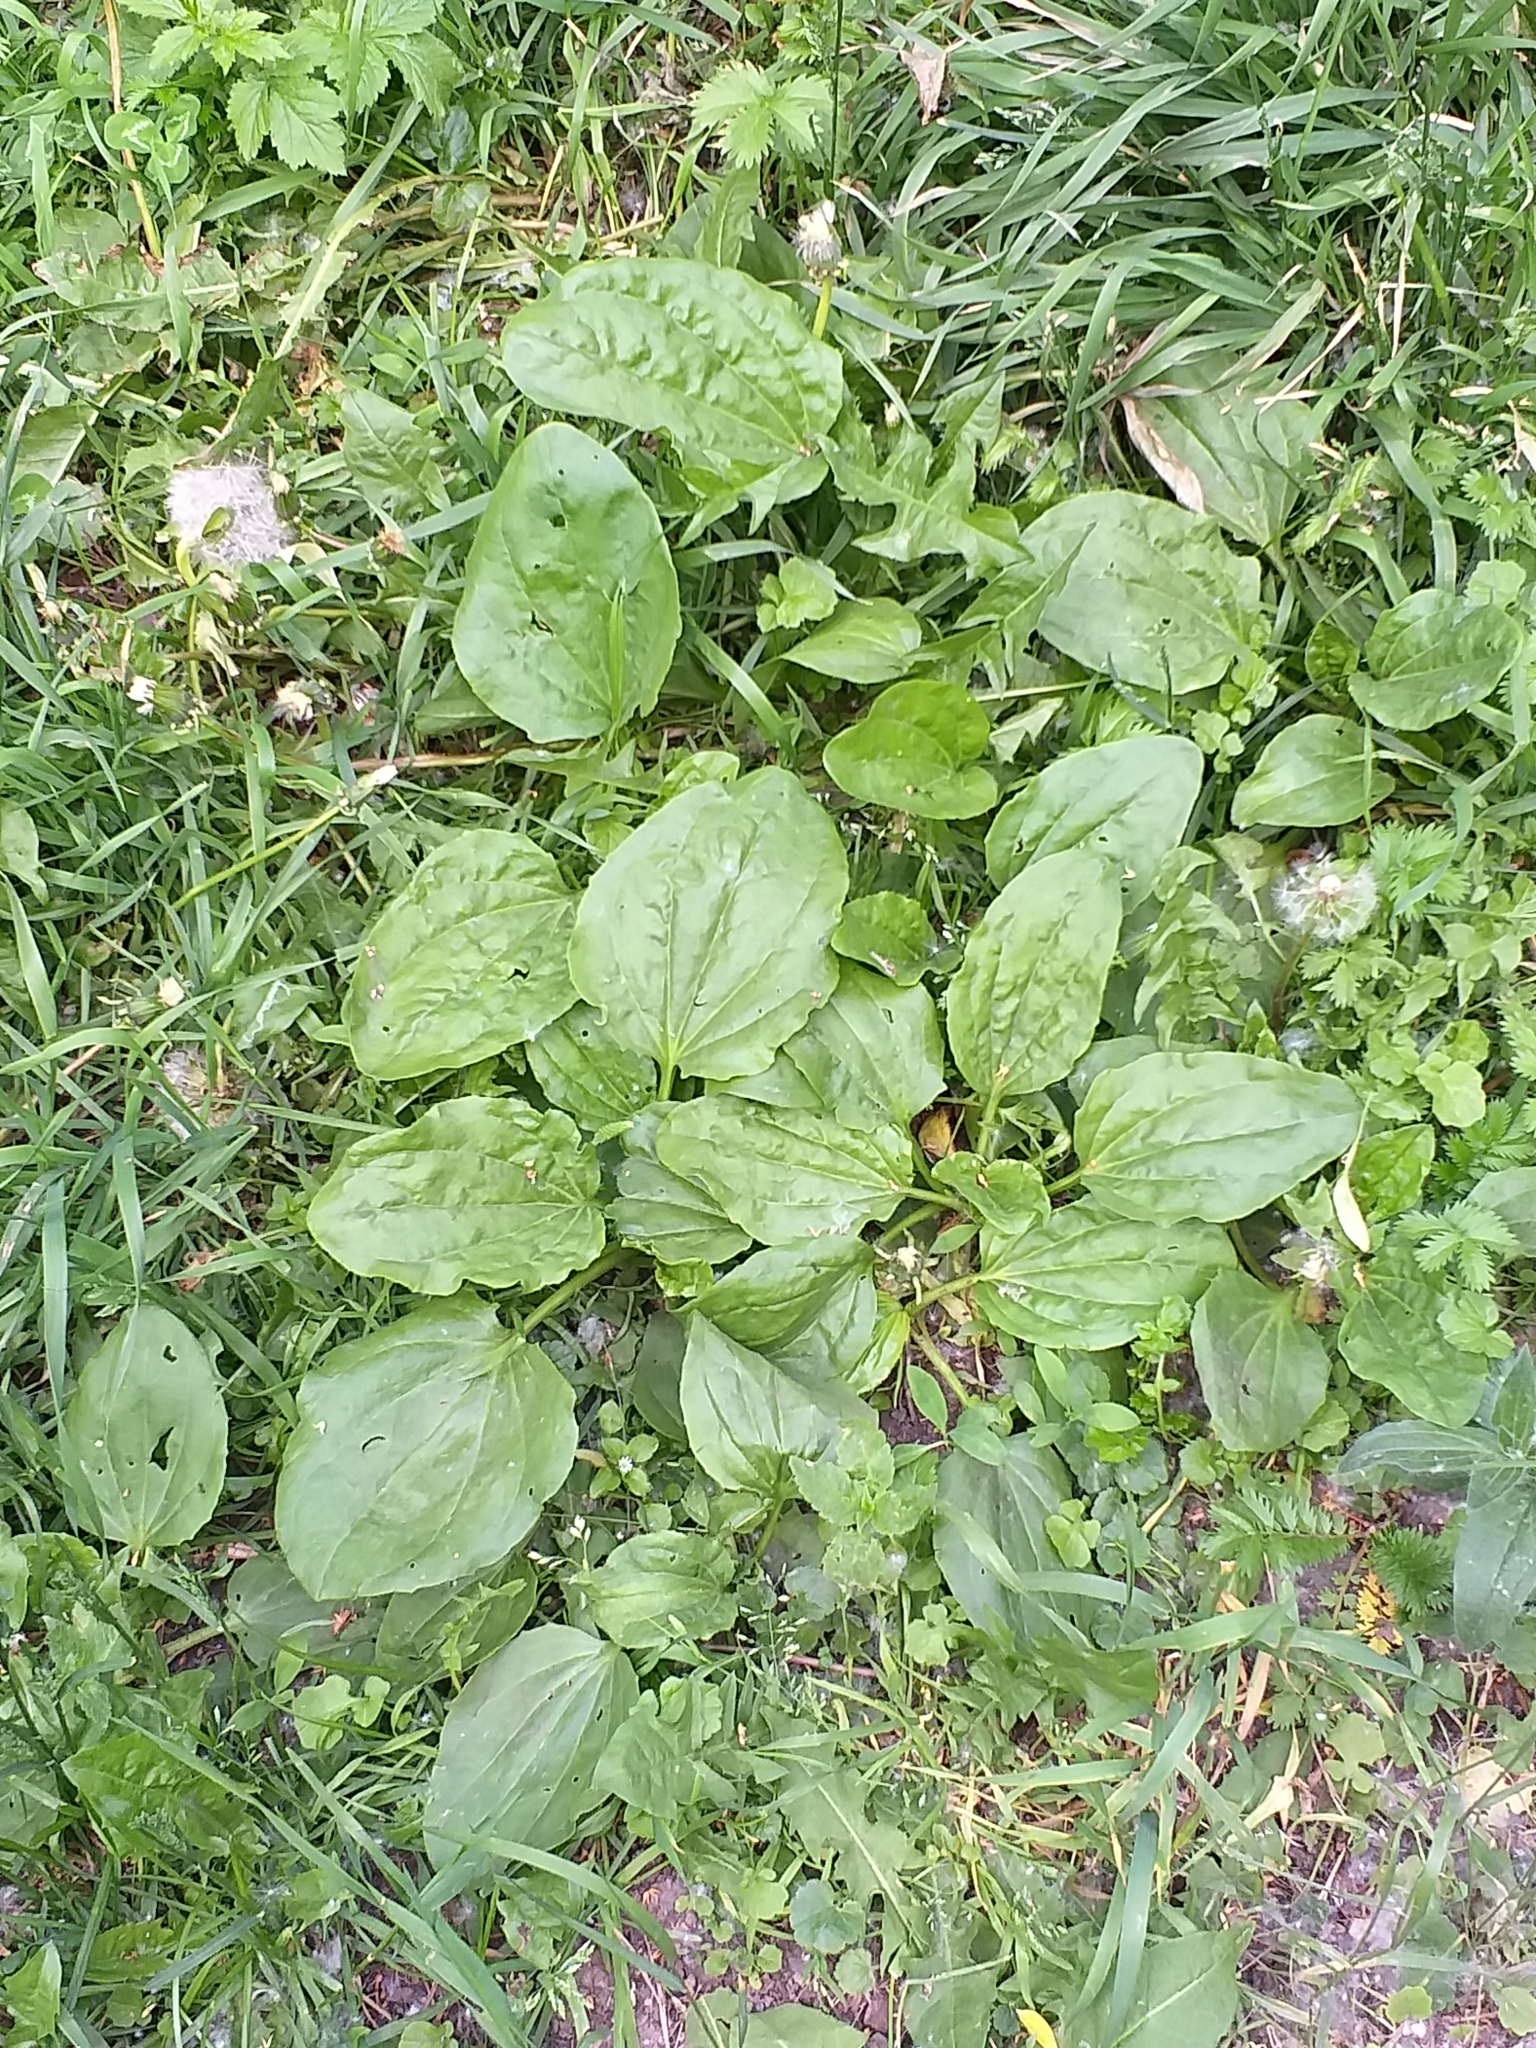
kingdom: Plantae
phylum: Tracheophyta
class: Magnoliopsida
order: Lamiales
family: Plantaginaceae
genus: Plantago
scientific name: Plantago major
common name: Common plantain
